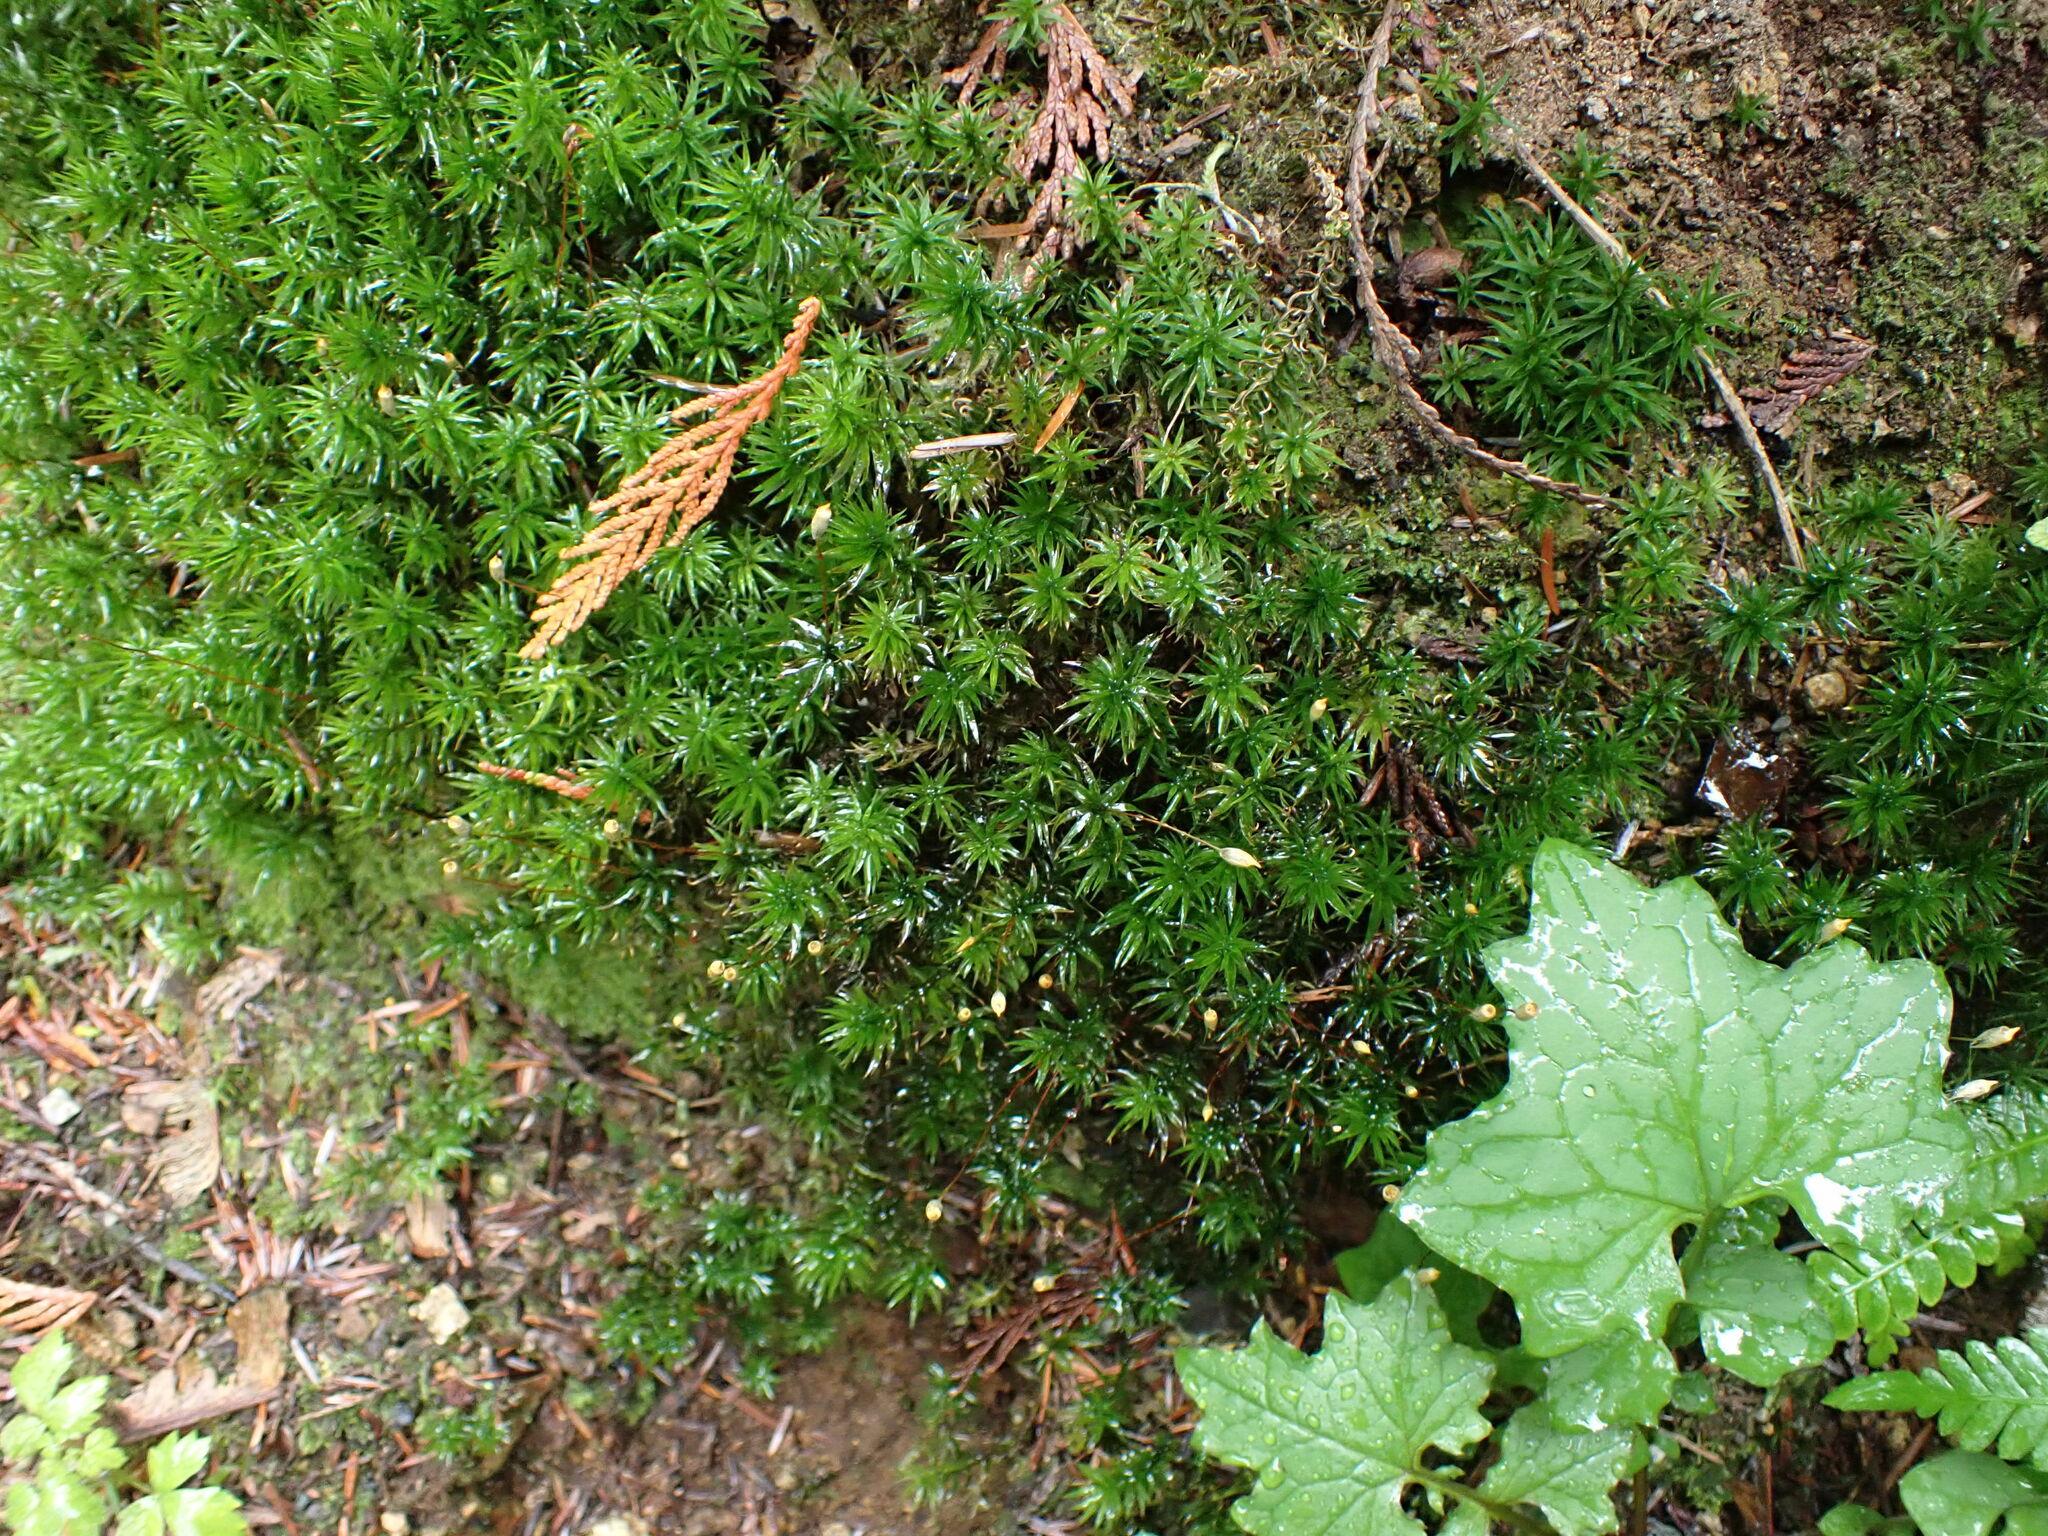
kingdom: Plantae
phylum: Bryophyta
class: Polytrichopsida
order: Polytrichales
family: Polytrichaceae
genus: Pogonatum
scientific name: Pogonatum contortum
